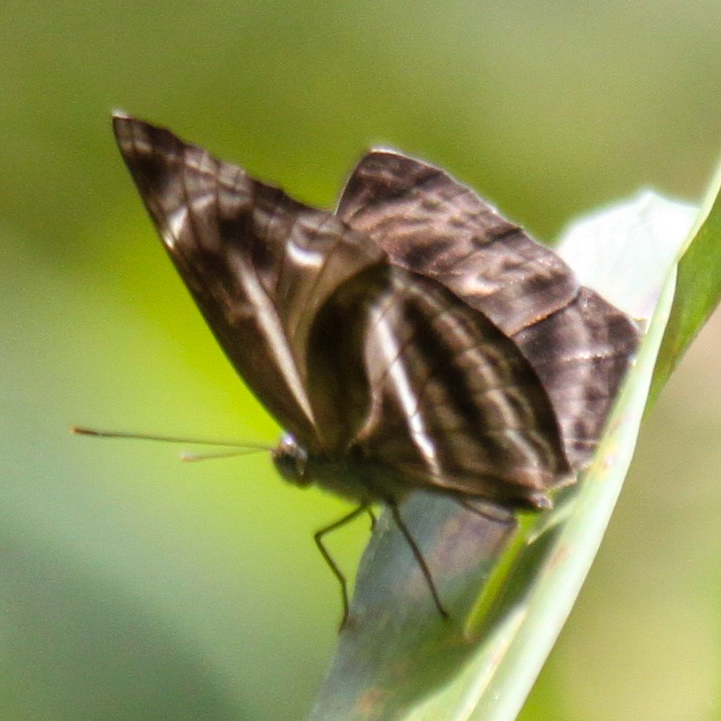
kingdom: Animalia
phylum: Arthropoda
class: Insecta
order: Lepidoptera
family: Nymphalidae
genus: Neptis
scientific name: Neptis harita
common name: Chocolate sailer
